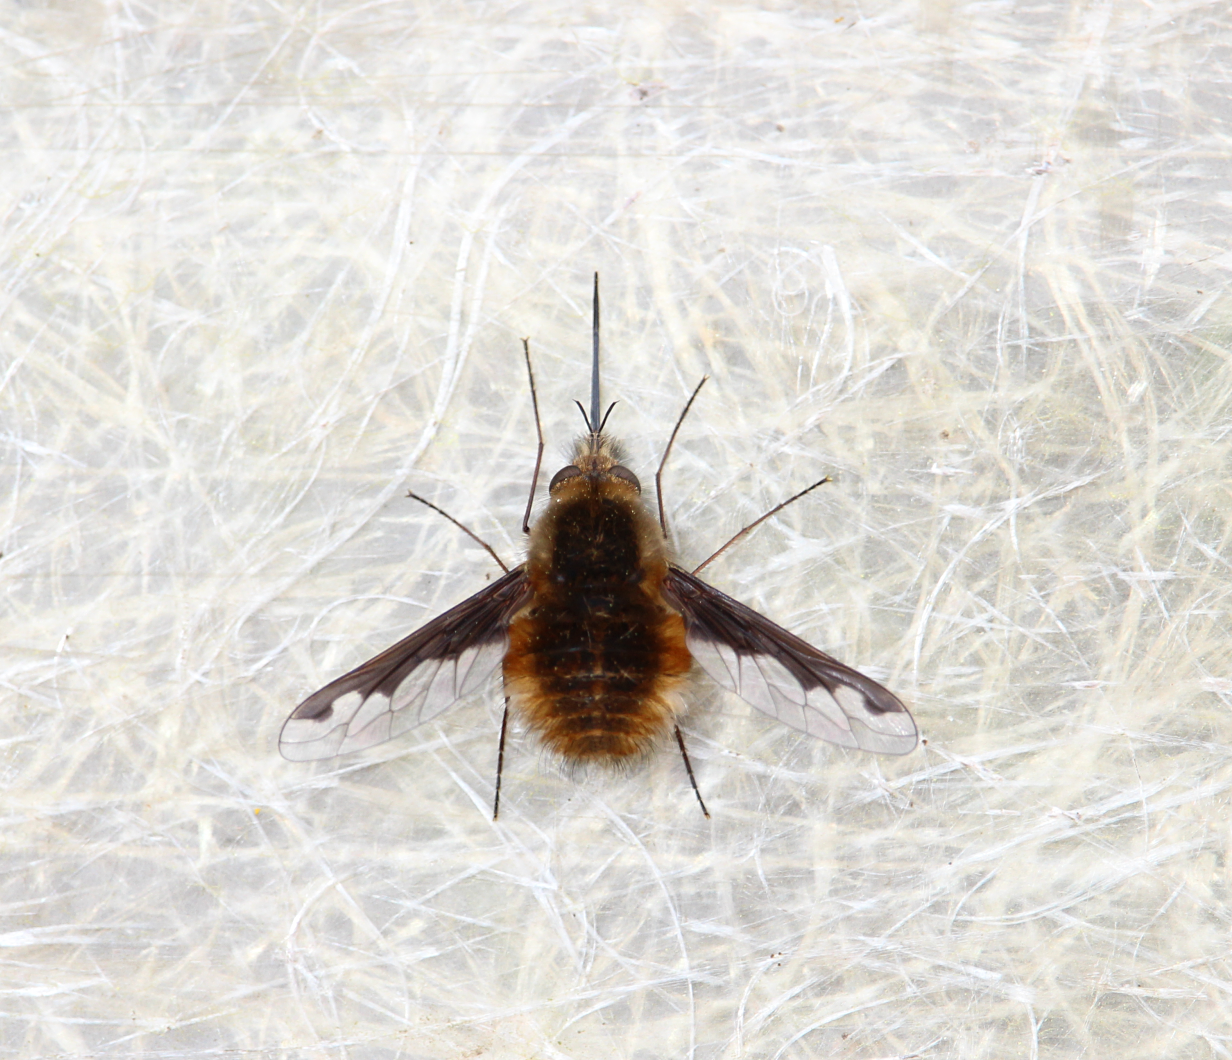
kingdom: Animalia
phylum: Arthropoda
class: Insecta
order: Diptera
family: Bombyliidae
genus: Bombylius
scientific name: Bombylius major
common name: Bee fly
